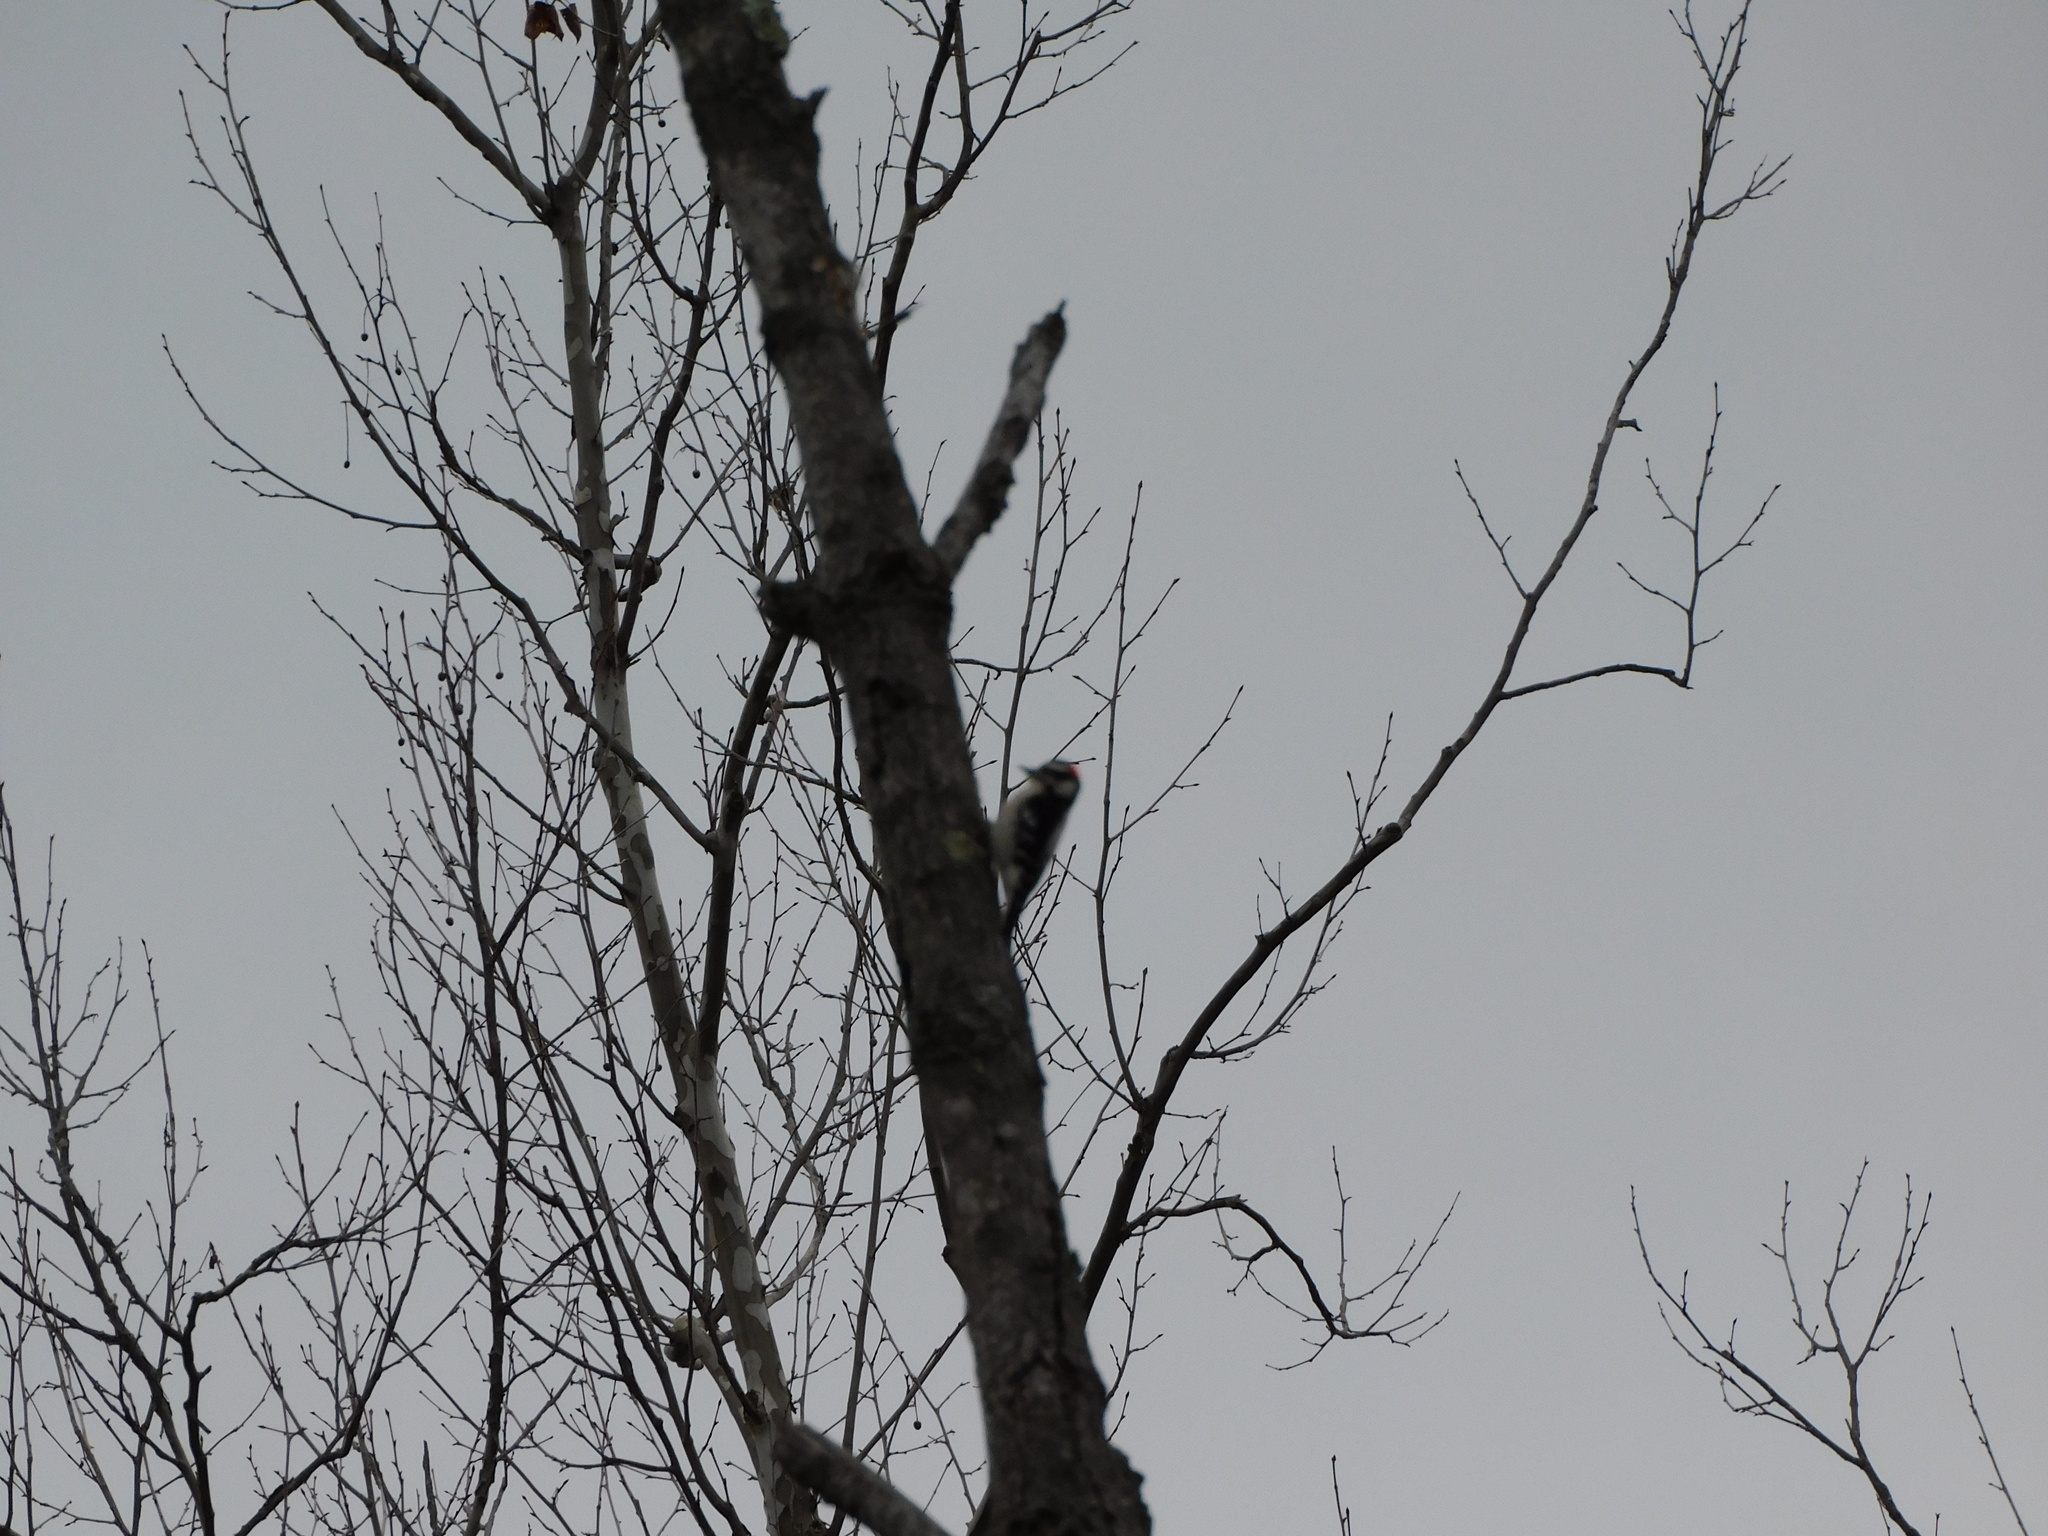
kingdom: Animalia
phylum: Chordata
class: Aves
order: Piciformes
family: Picidae
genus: Dryobates
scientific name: Dryobates pubescens
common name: Downy woodpecker
